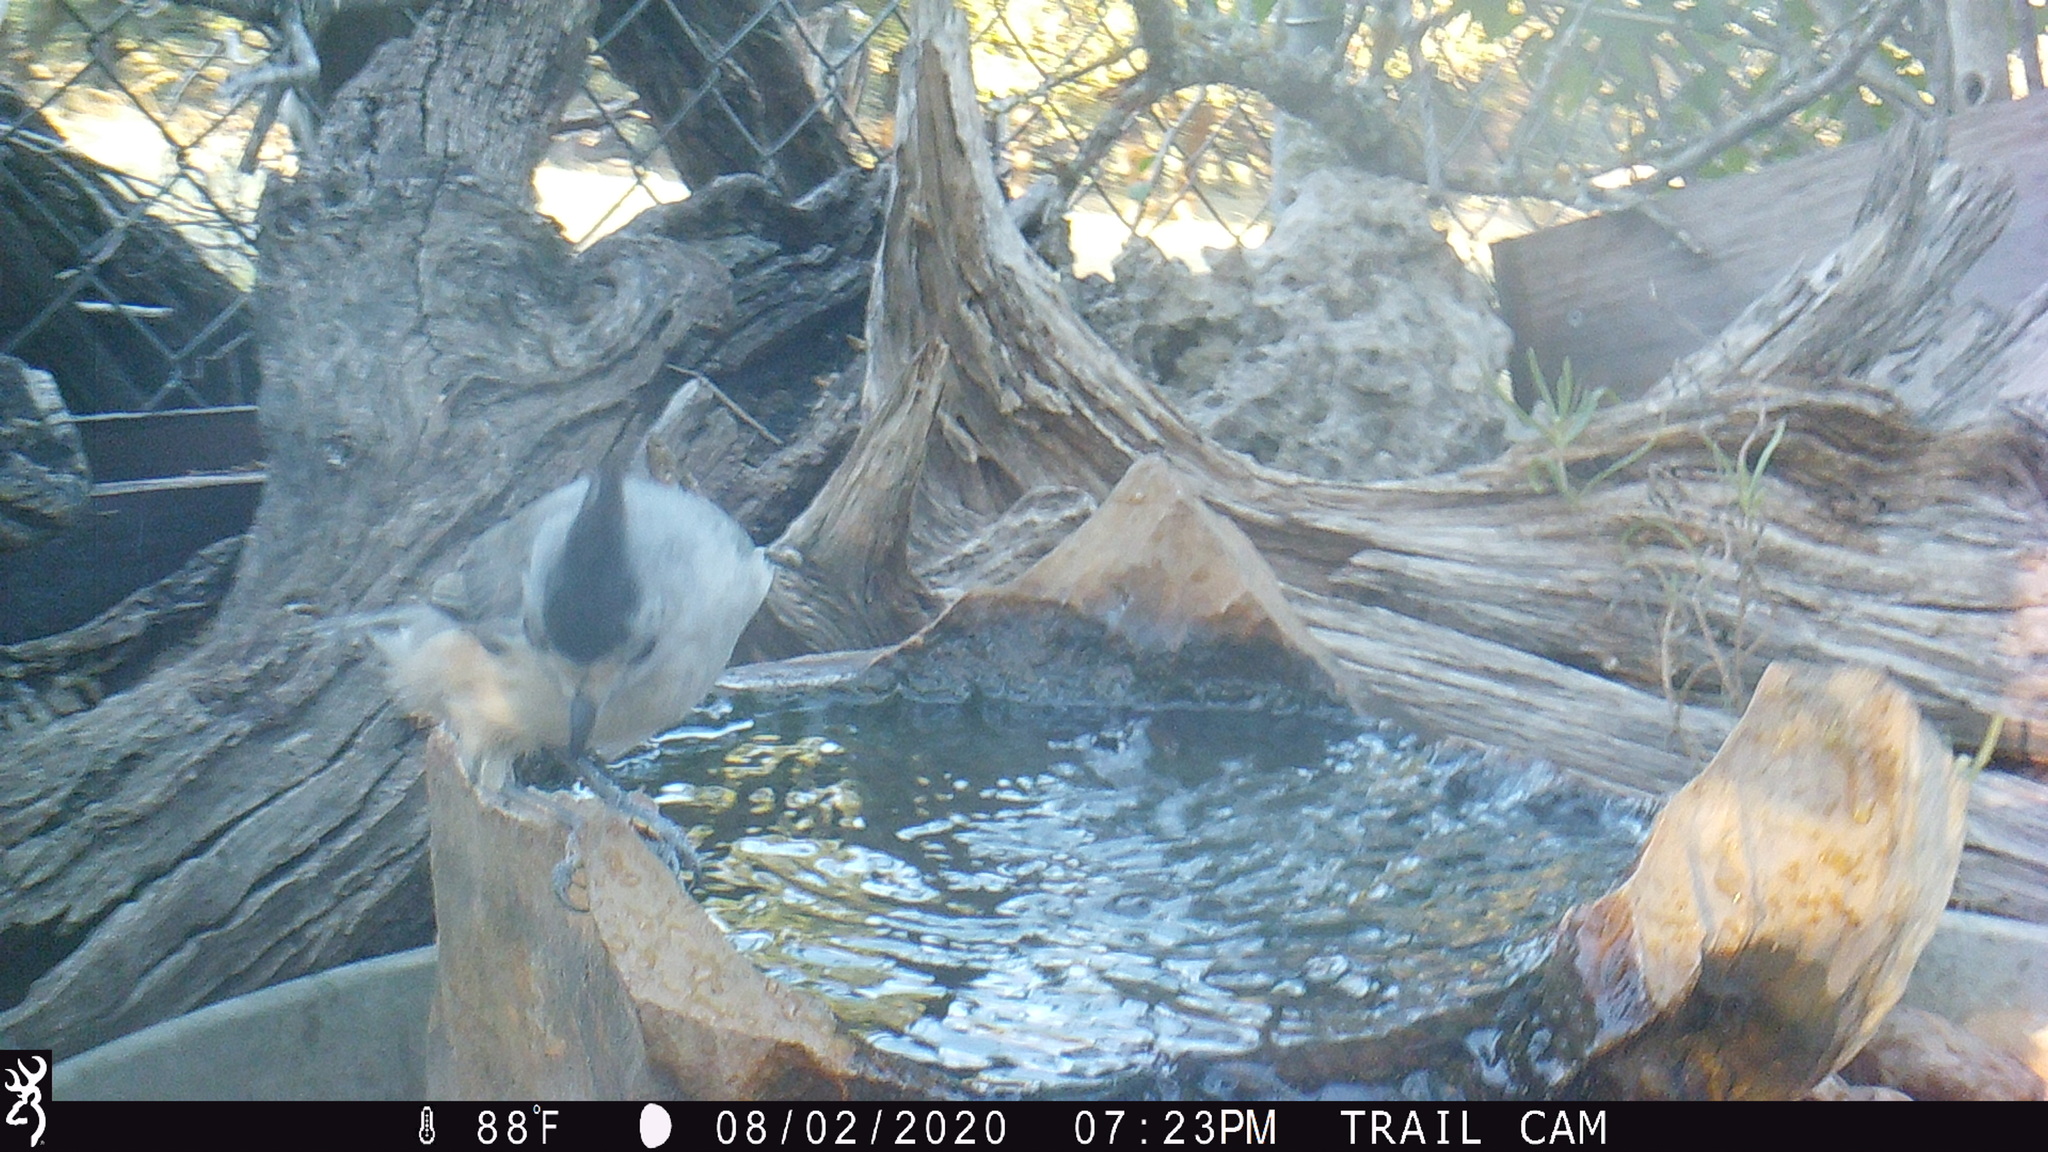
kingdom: Animalia
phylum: Chordata
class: Aves
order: Passeriformes
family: Paridae
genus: Baeolophus
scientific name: Baeolophus atricristatus
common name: Black-crested titmouse
